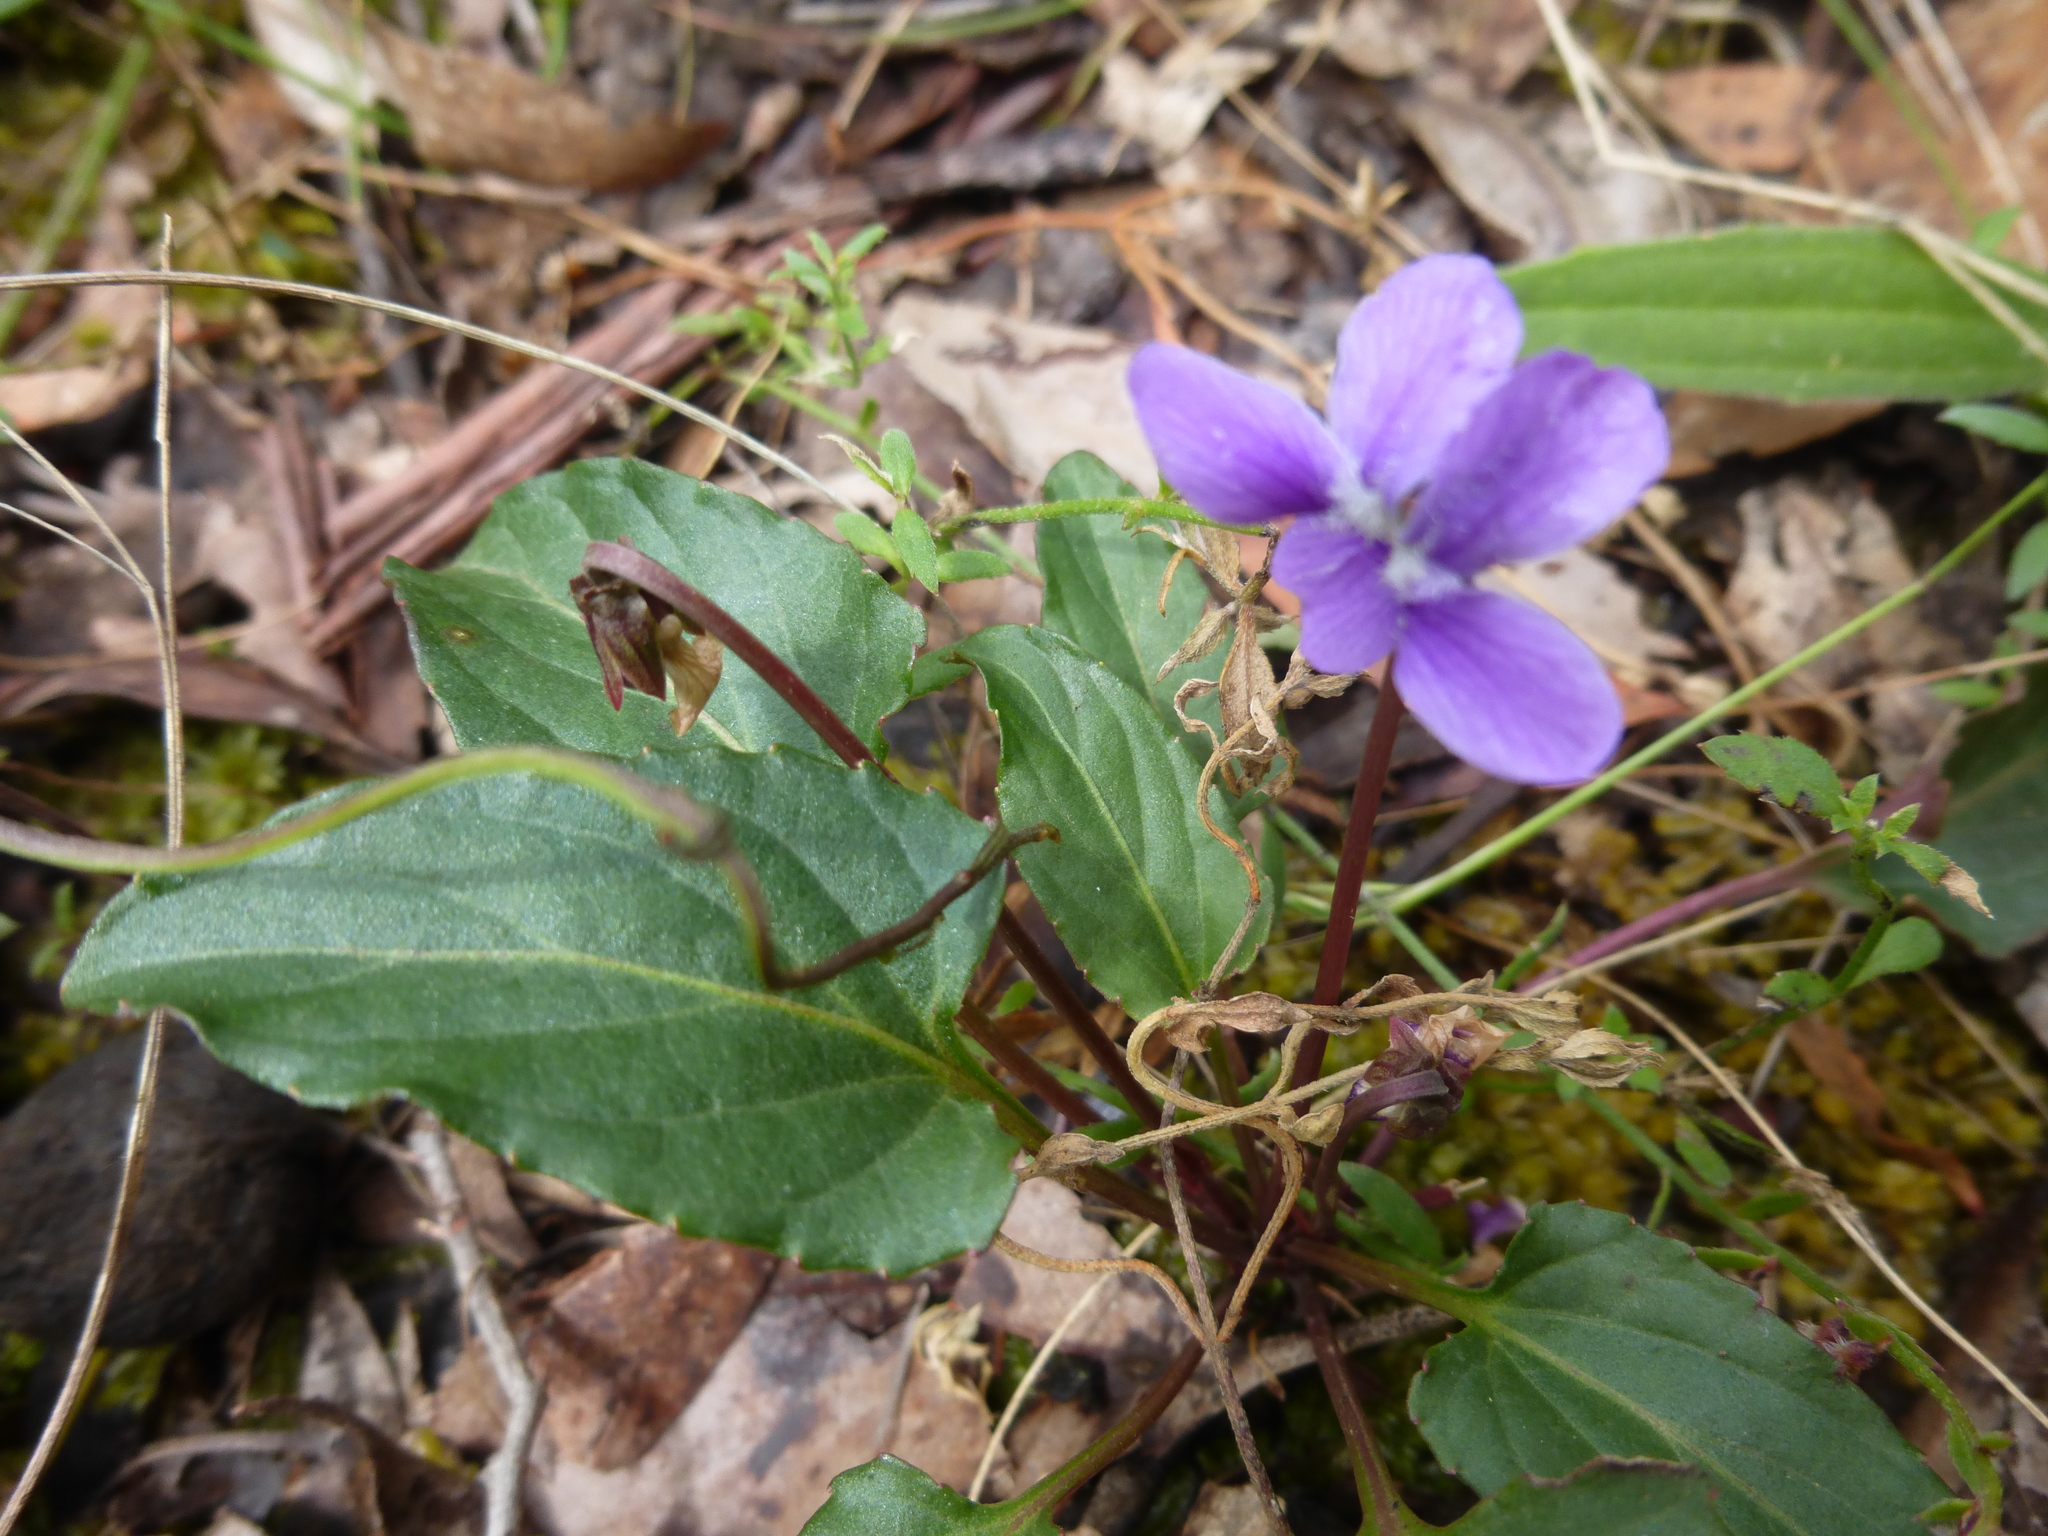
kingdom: Plantae
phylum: Tracheophyta
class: Magnoliopsida
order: Malpighiales
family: Violaceae
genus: Viola
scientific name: Viola betonicifolia
